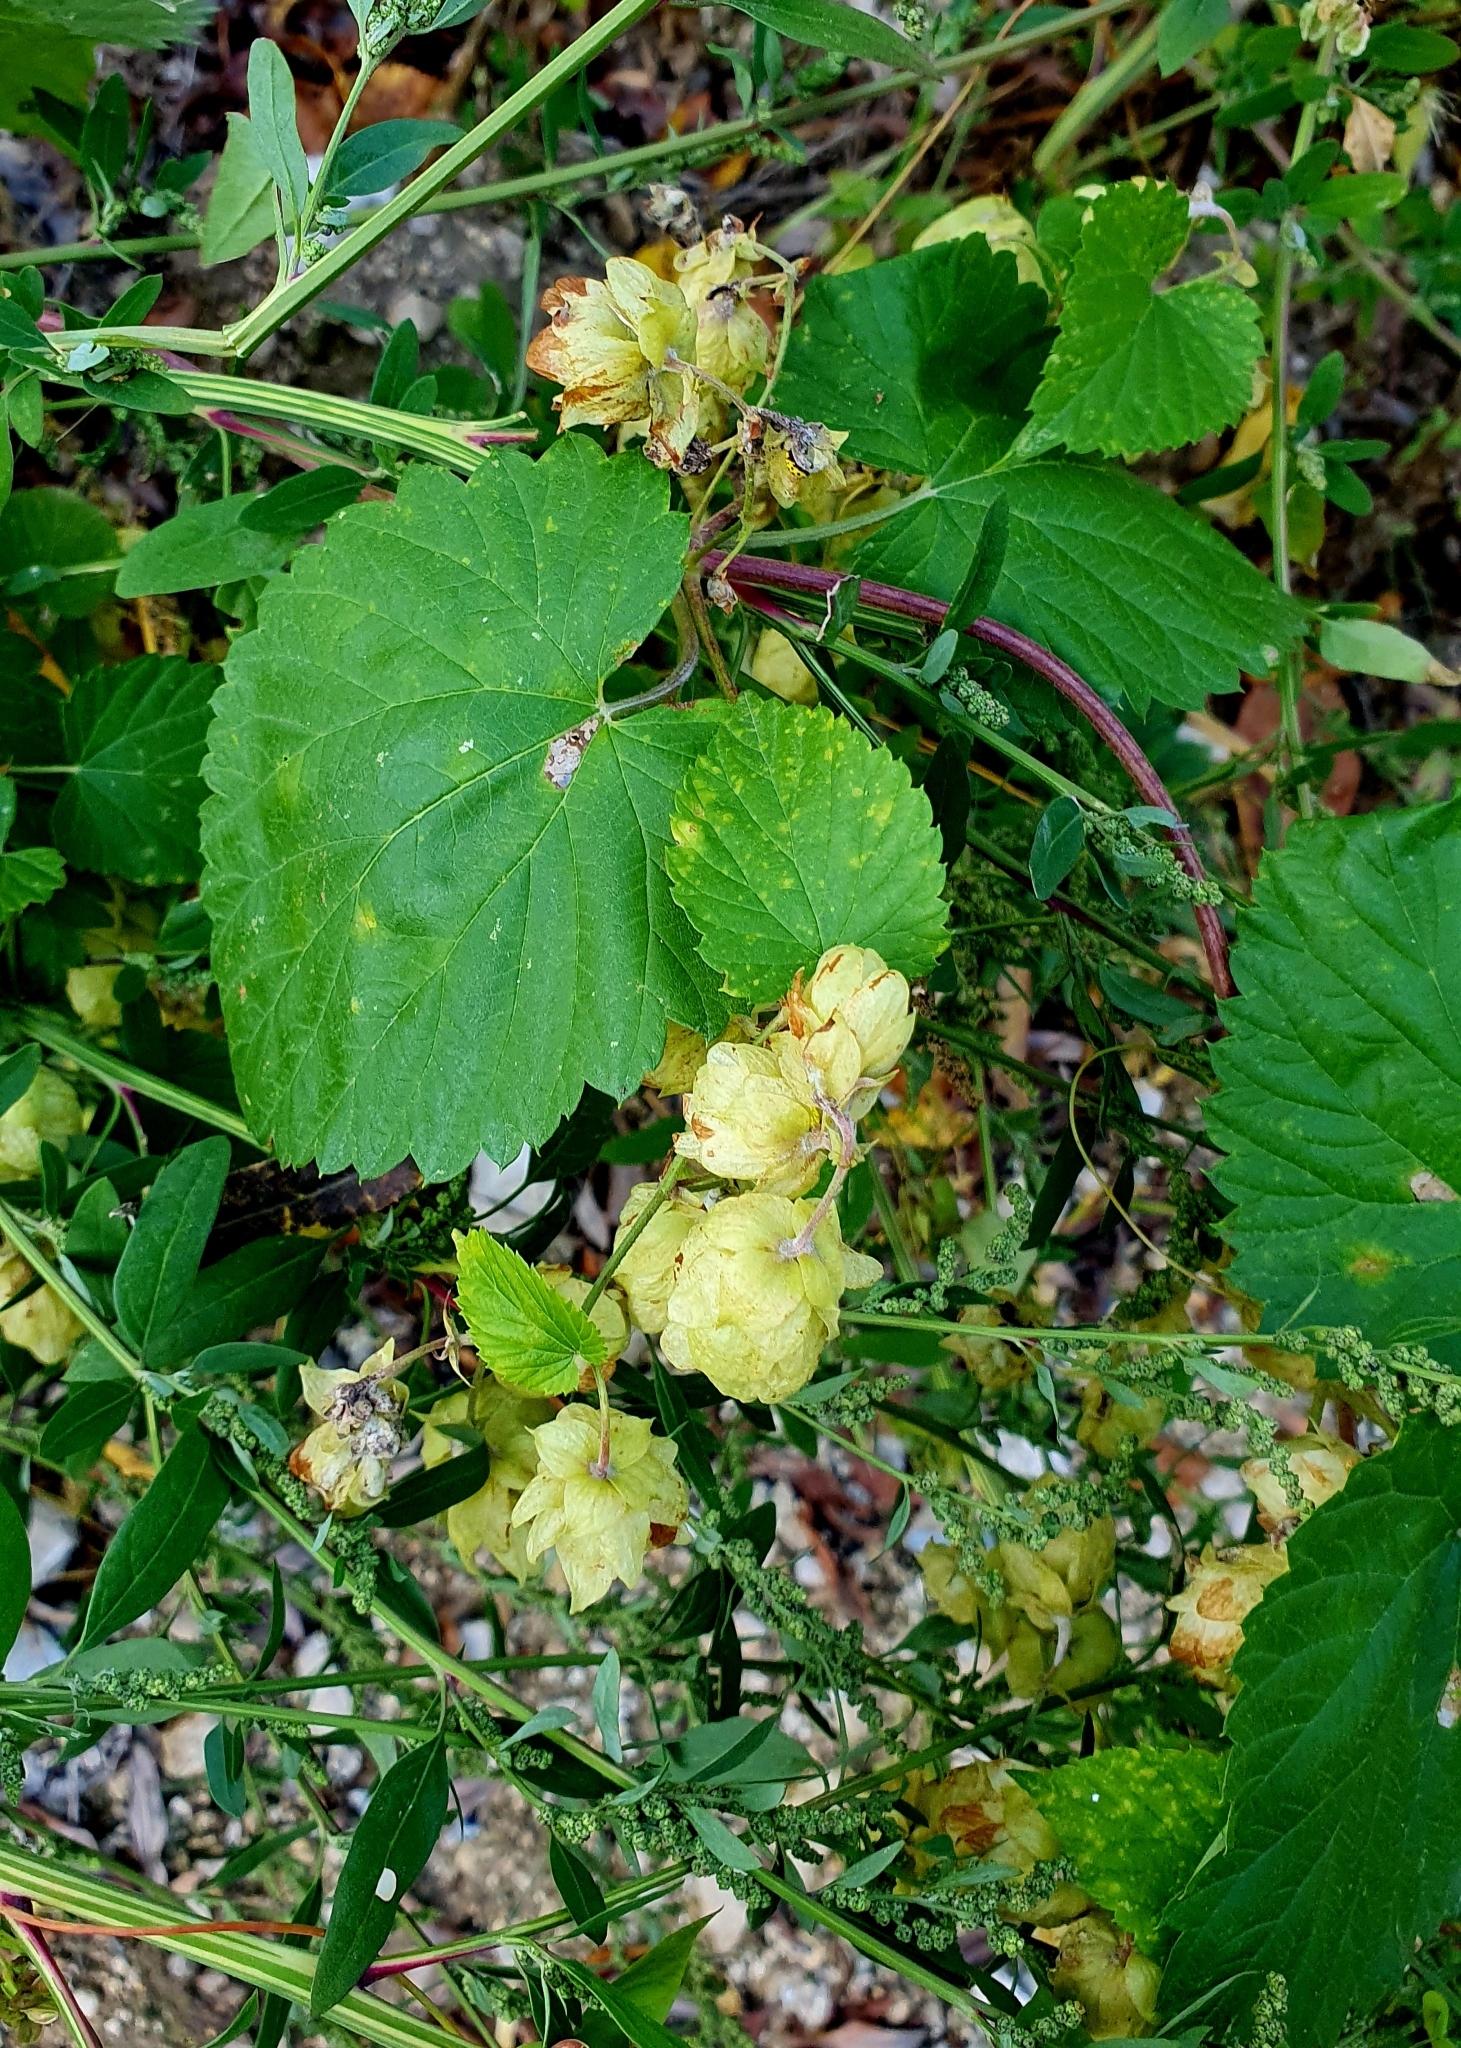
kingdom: Plantae
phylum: Tracheophyta
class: Magnoliopsida
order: Rosales
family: Cannabaceae
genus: Humulus
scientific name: Humulus lupulus
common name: Hop
